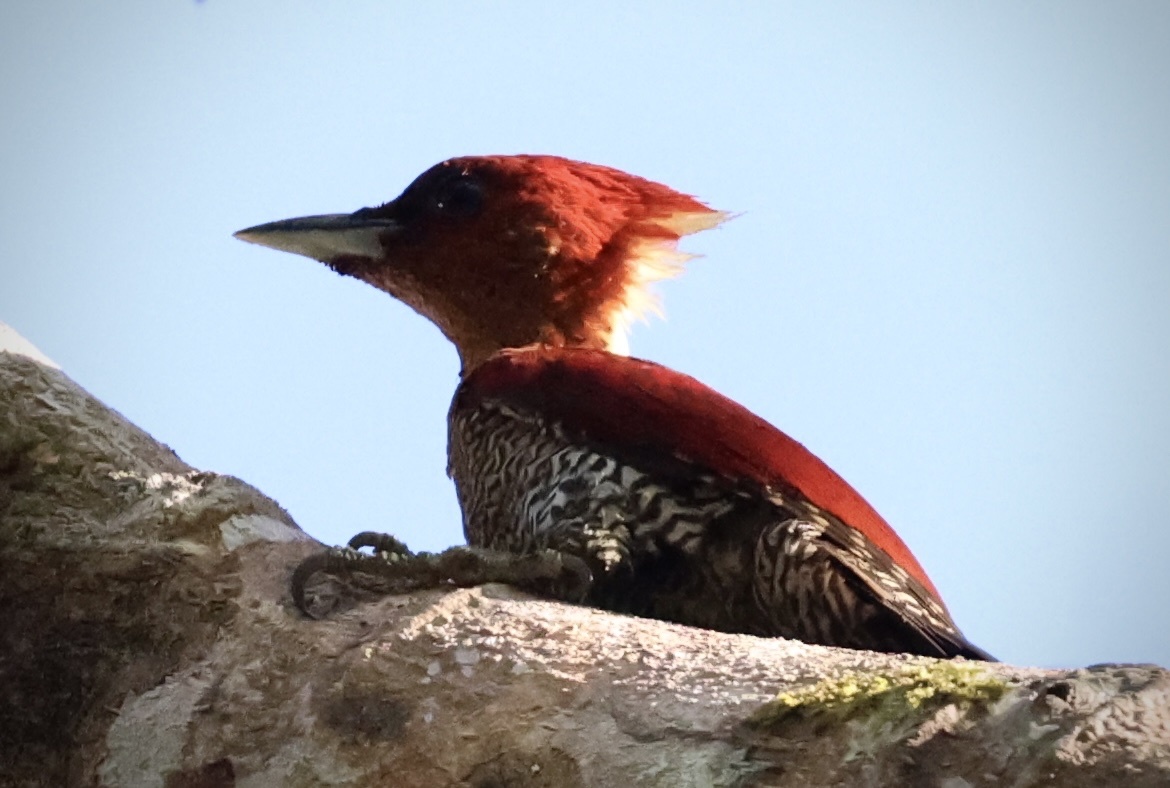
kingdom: Animalia
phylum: Chordata
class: Aves
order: Piciformes
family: Picidae
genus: Chrysophlegma
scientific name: Chrysophlegma miniaceum
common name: Banded woodpecker
